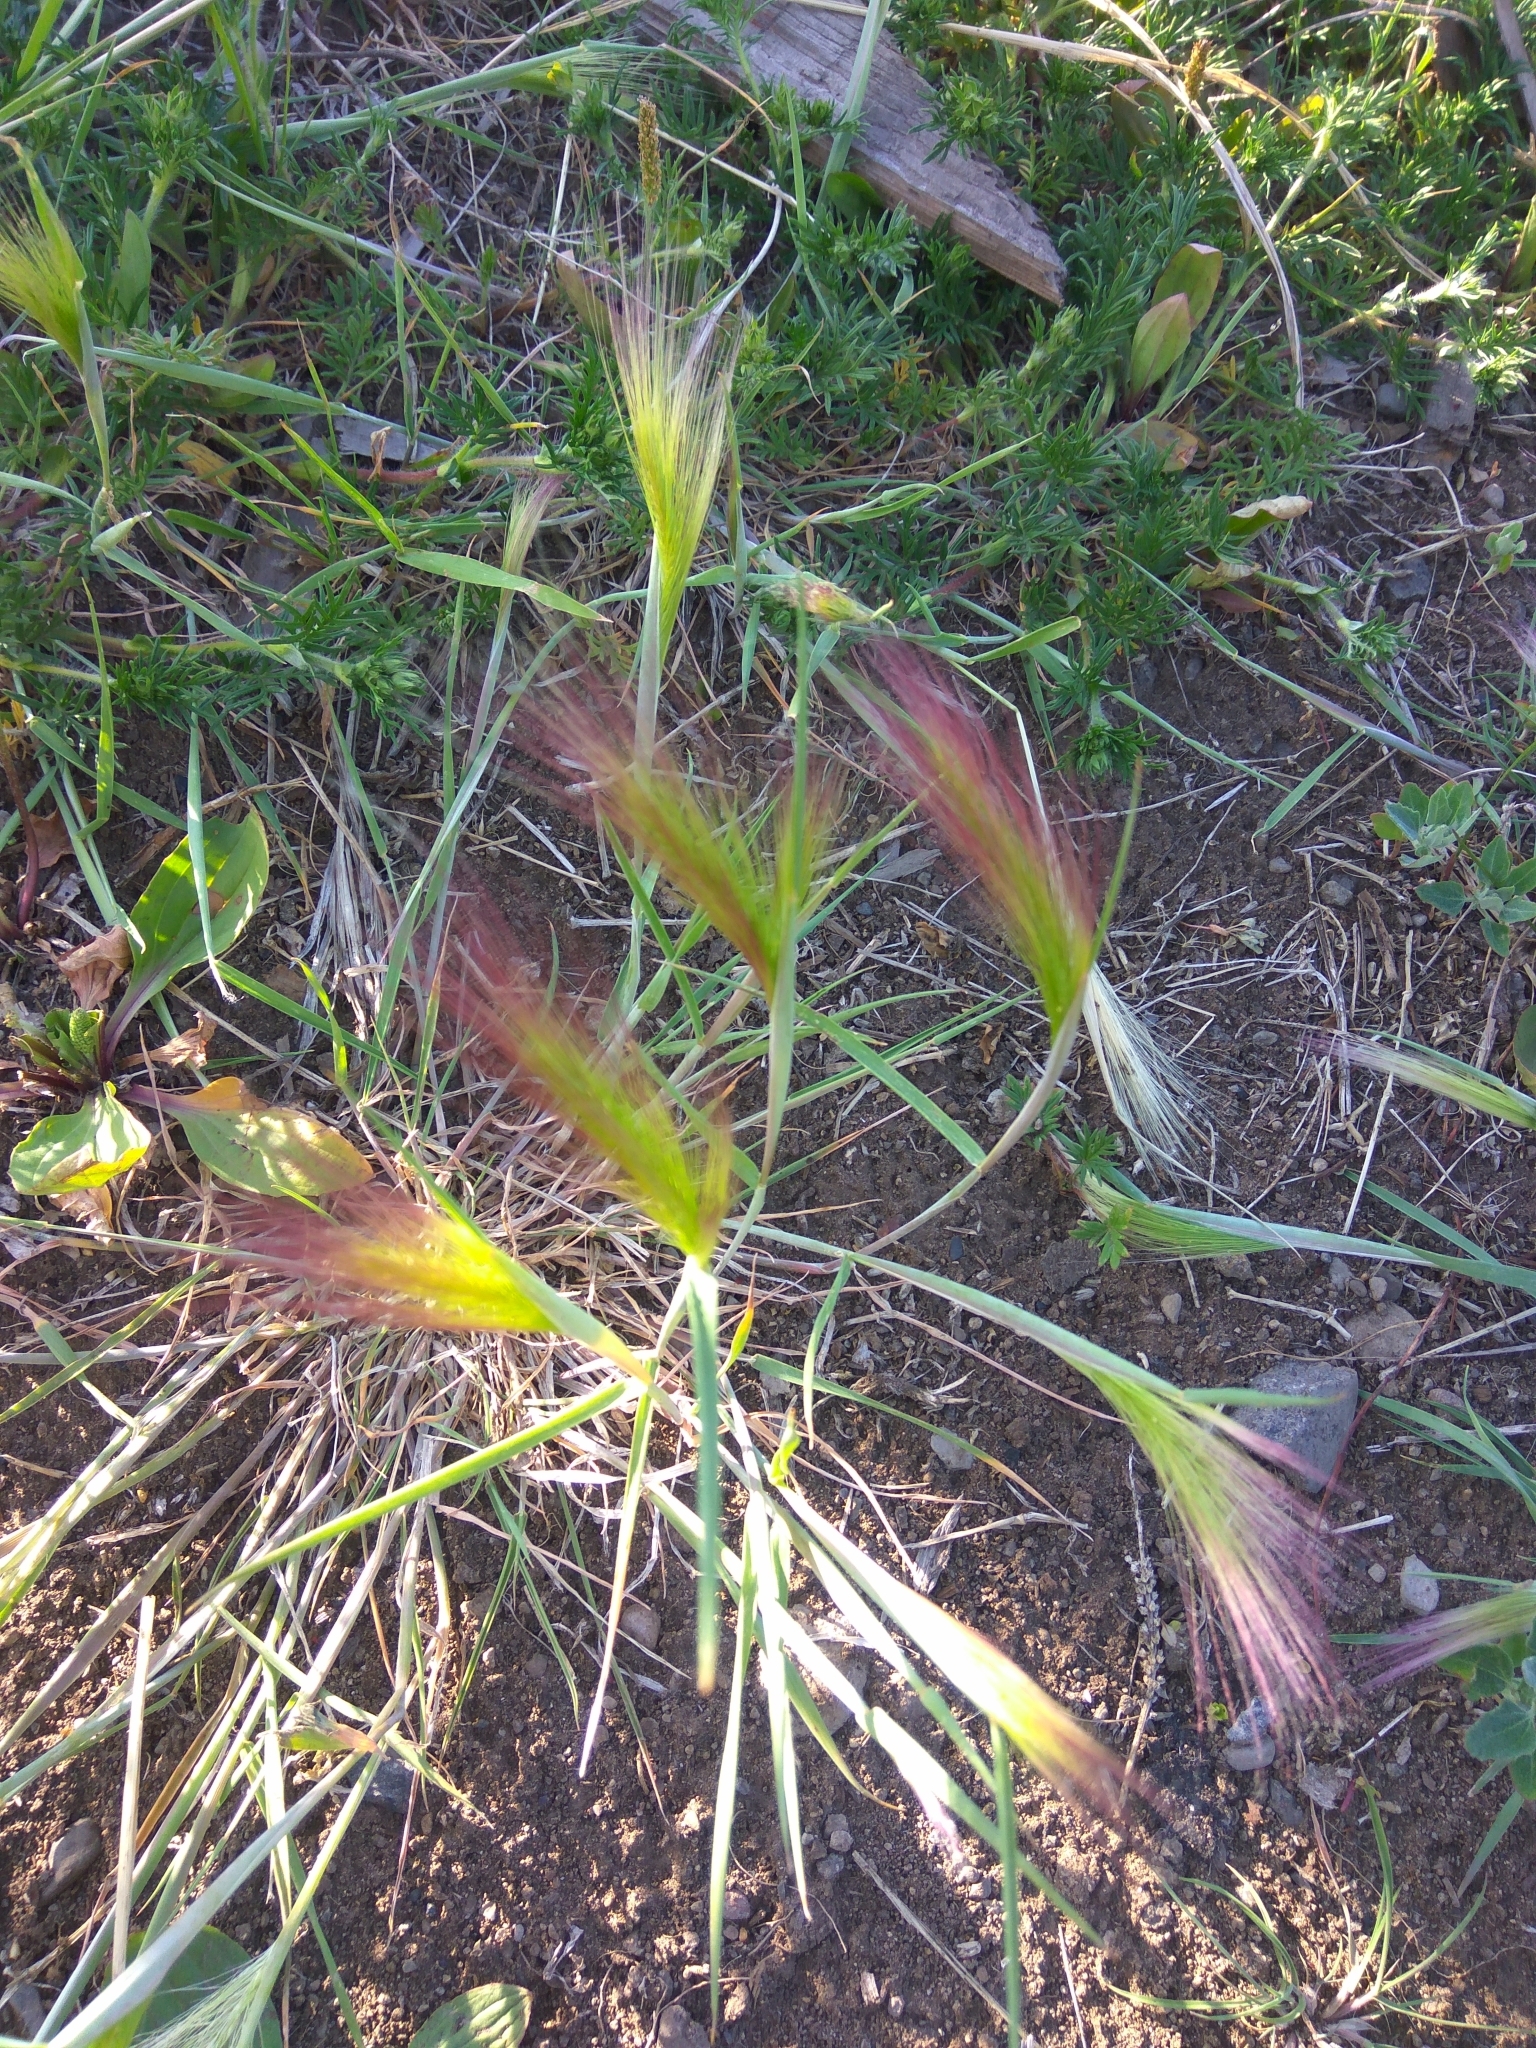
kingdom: Plantae
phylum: Tracheophyta
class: Liliopsida
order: Poales
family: Poaceae
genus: Hordeum
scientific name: Hordeum jubatum
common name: Foxtail barley
